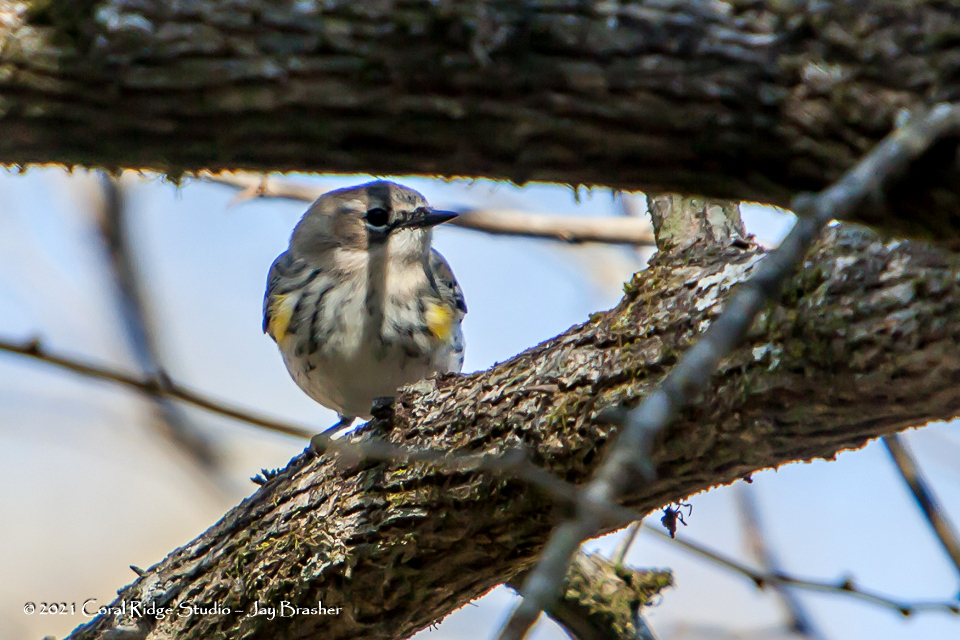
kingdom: Animalia
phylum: Chordata
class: Aves
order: Passeriformes
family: Parulidae
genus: Setophaga
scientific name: Setophaga coronata
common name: Myrtle warbler
